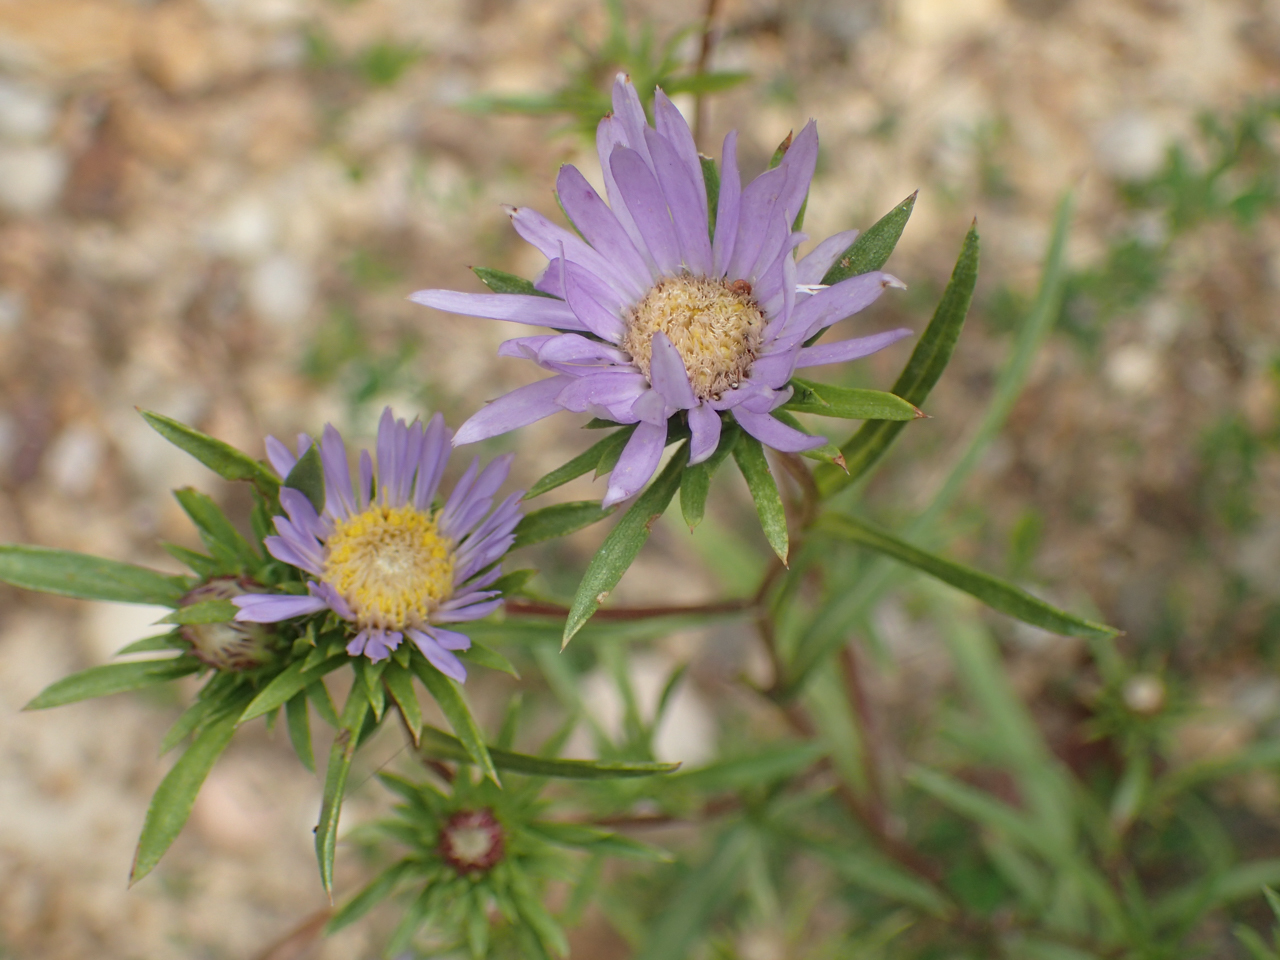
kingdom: Plantae
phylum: Tracheophyta
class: Magnoliopsida
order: Asterales
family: Asteraceae
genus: Eurybia
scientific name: Eurybia hemispherica
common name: Showy aster
